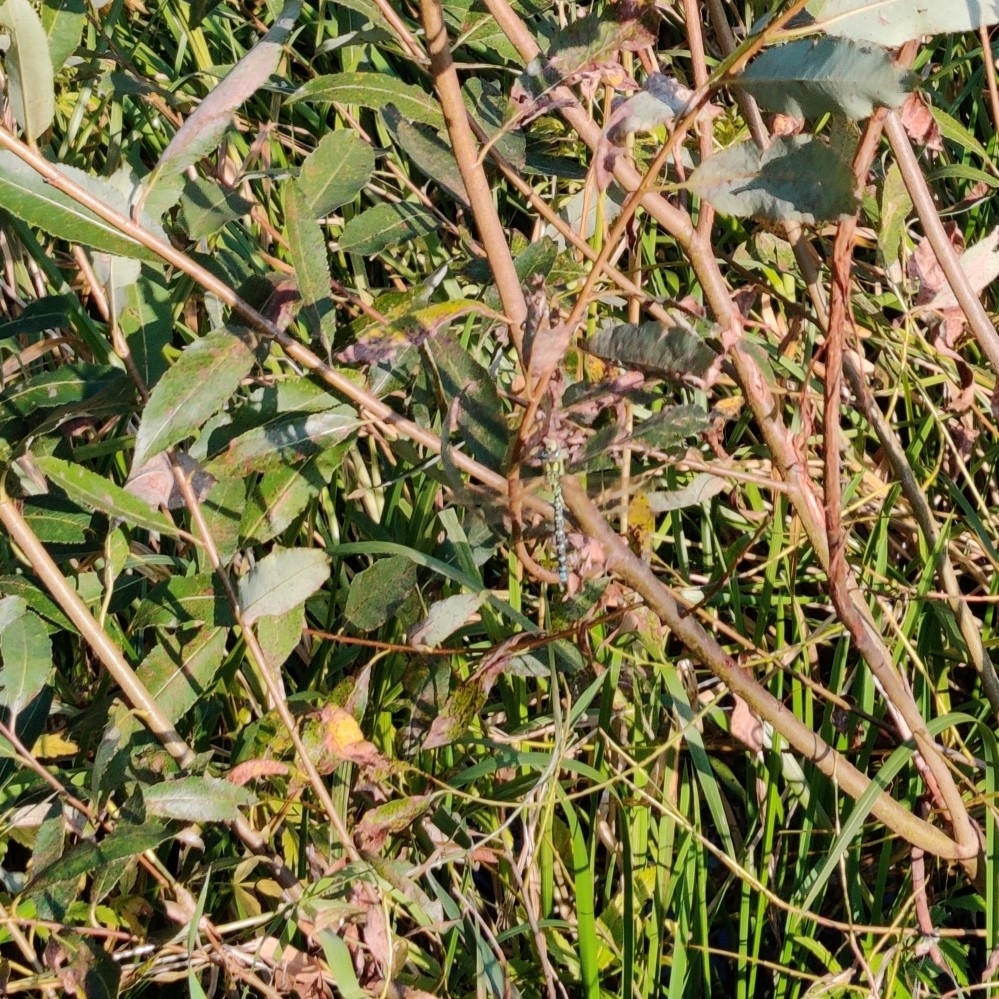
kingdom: Animalia
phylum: Arthropoda
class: Insecta
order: Odonata
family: Aeshnidae
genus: Aeshna
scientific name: Aeshna cyanea
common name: Southern hawker
